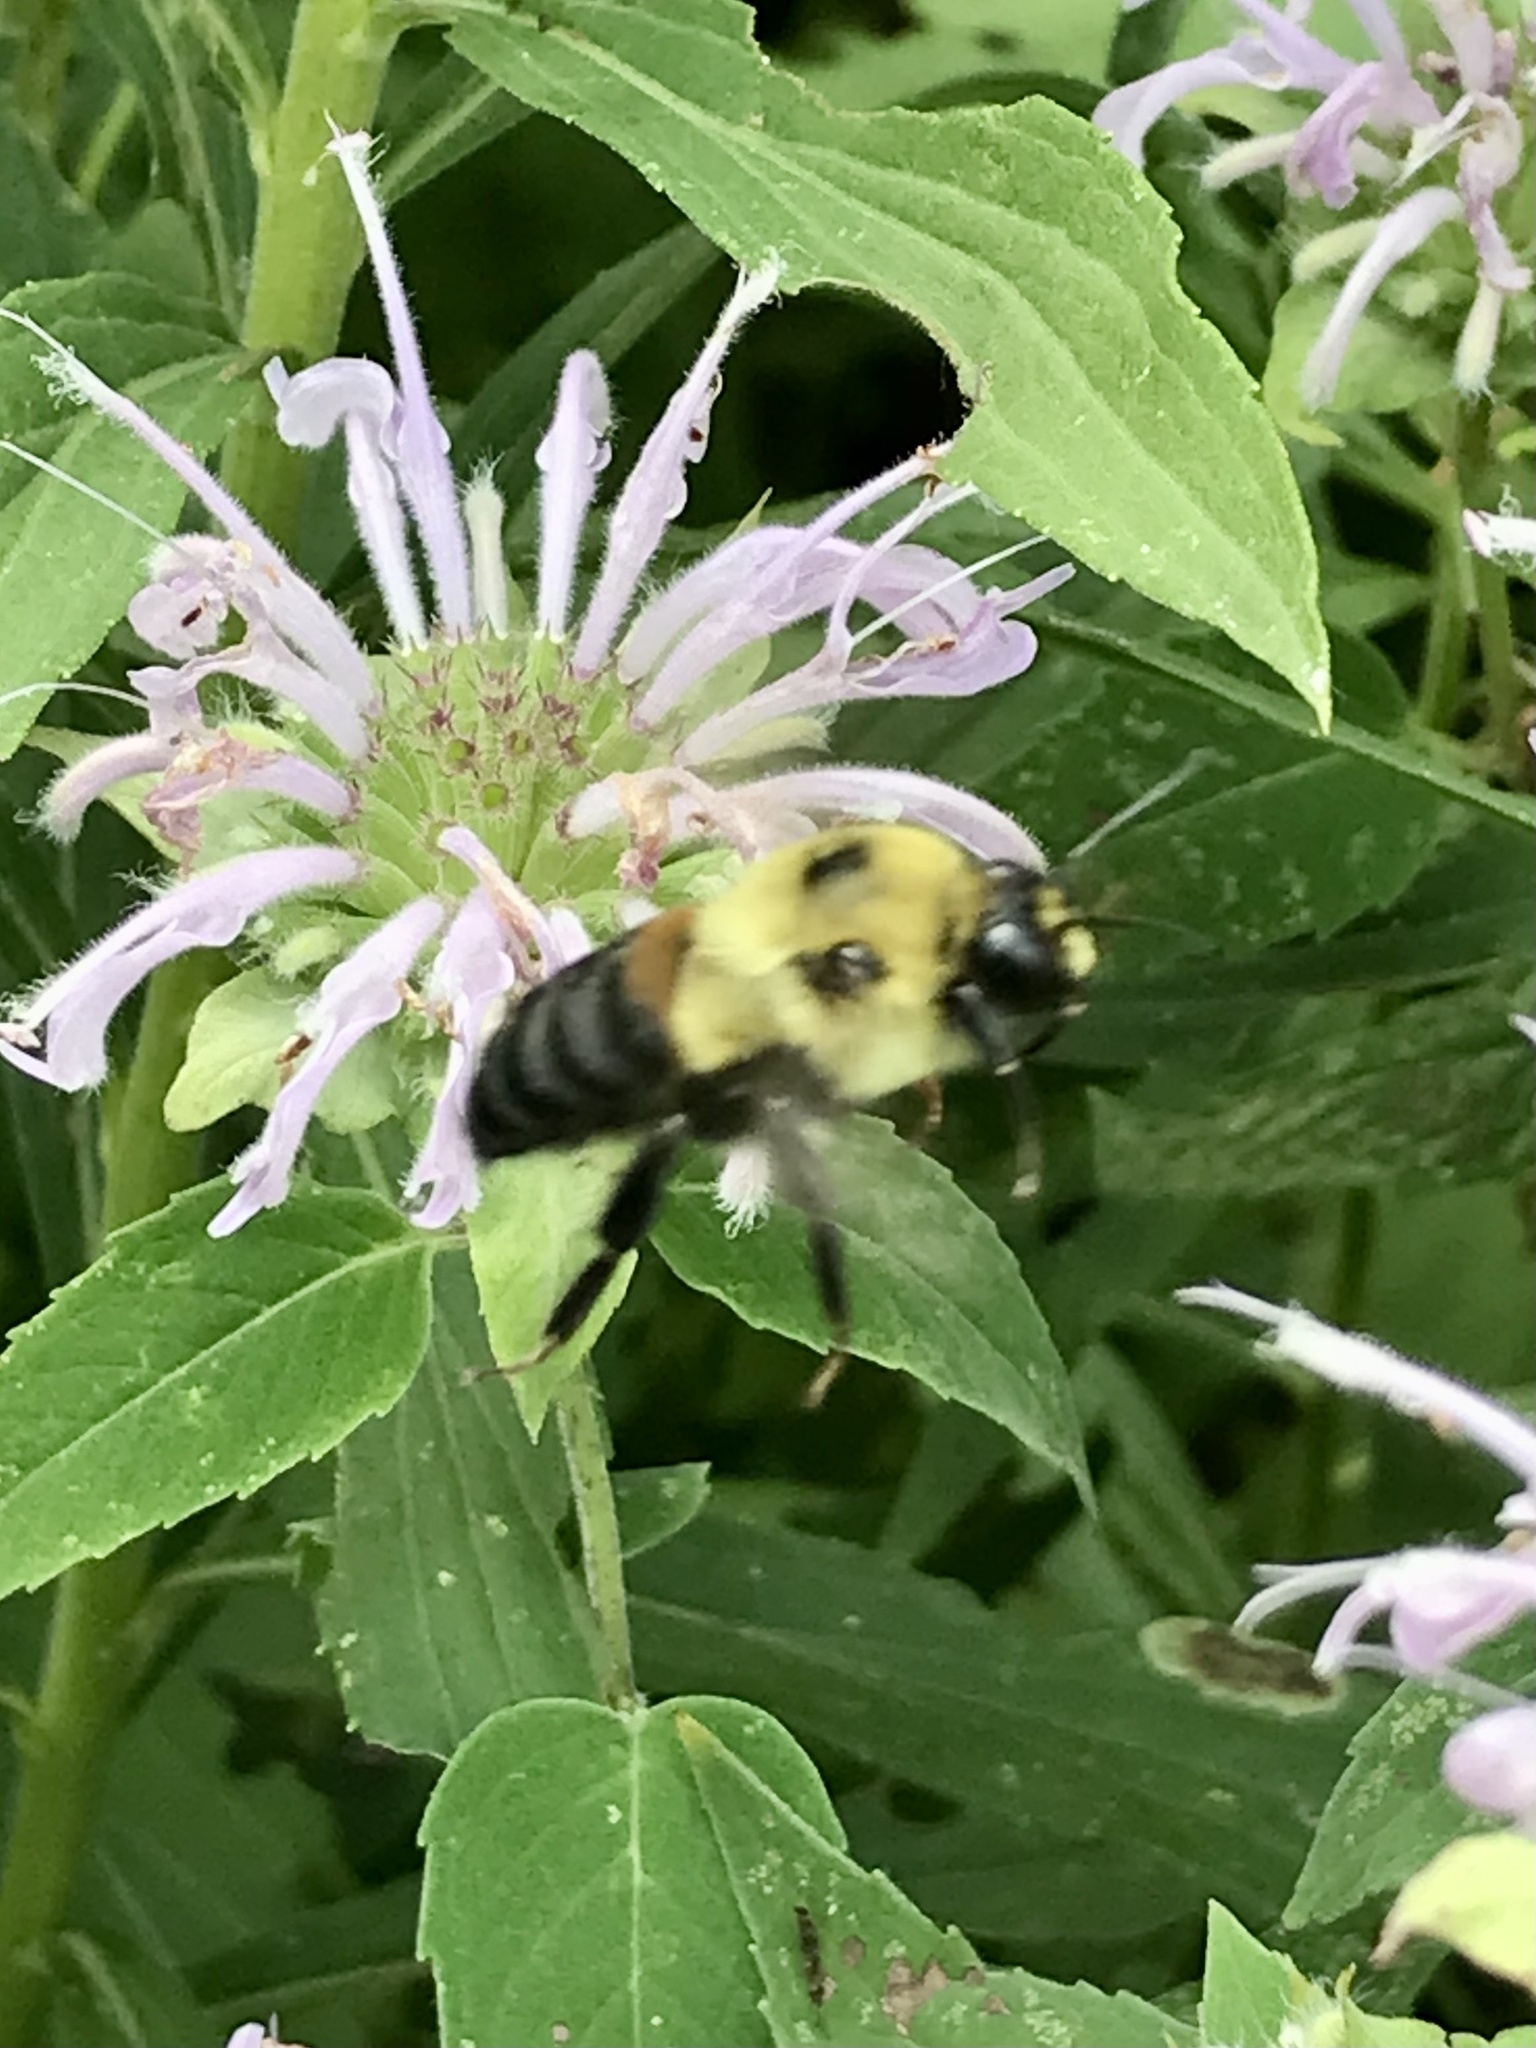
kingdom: Animalia
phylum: Arthropoda
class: Insecta
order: Hymenoptera
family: Apidae
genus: Bombus
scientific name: Bombus griseocollis
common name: Brown-belted bumble bee
